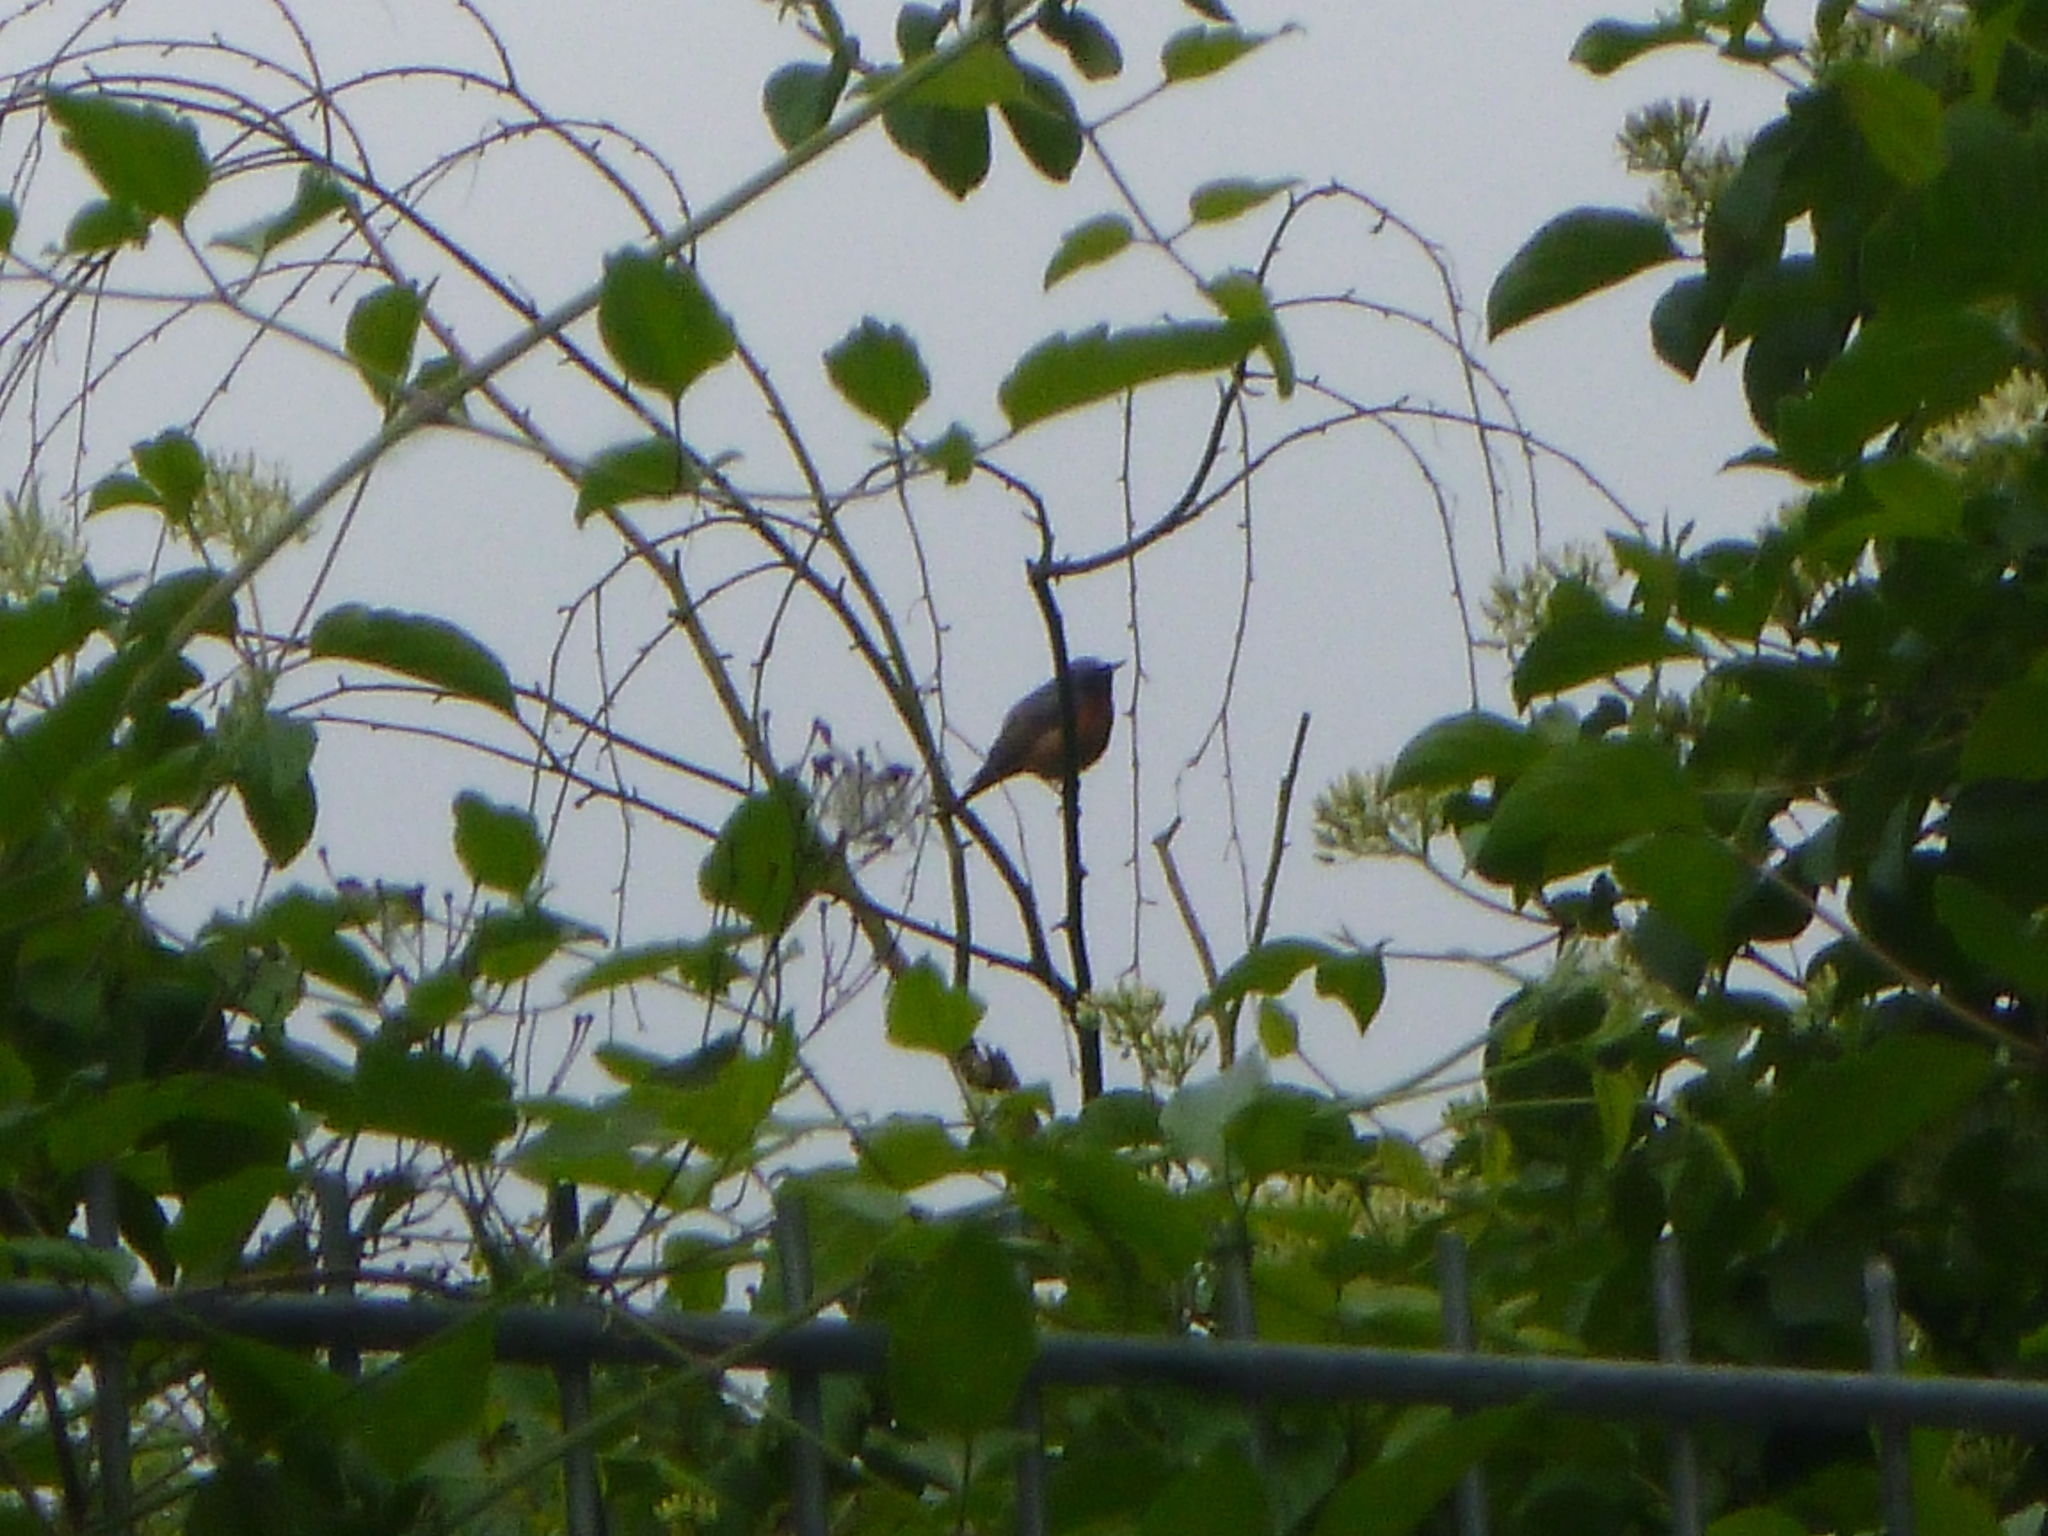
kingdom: Animalia
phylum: Chordata
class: Aves
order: Passeriformes
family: Muscicapidae
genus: Phoenicurus
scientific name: Phoenicurus phoenicurus
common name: Common redstart
